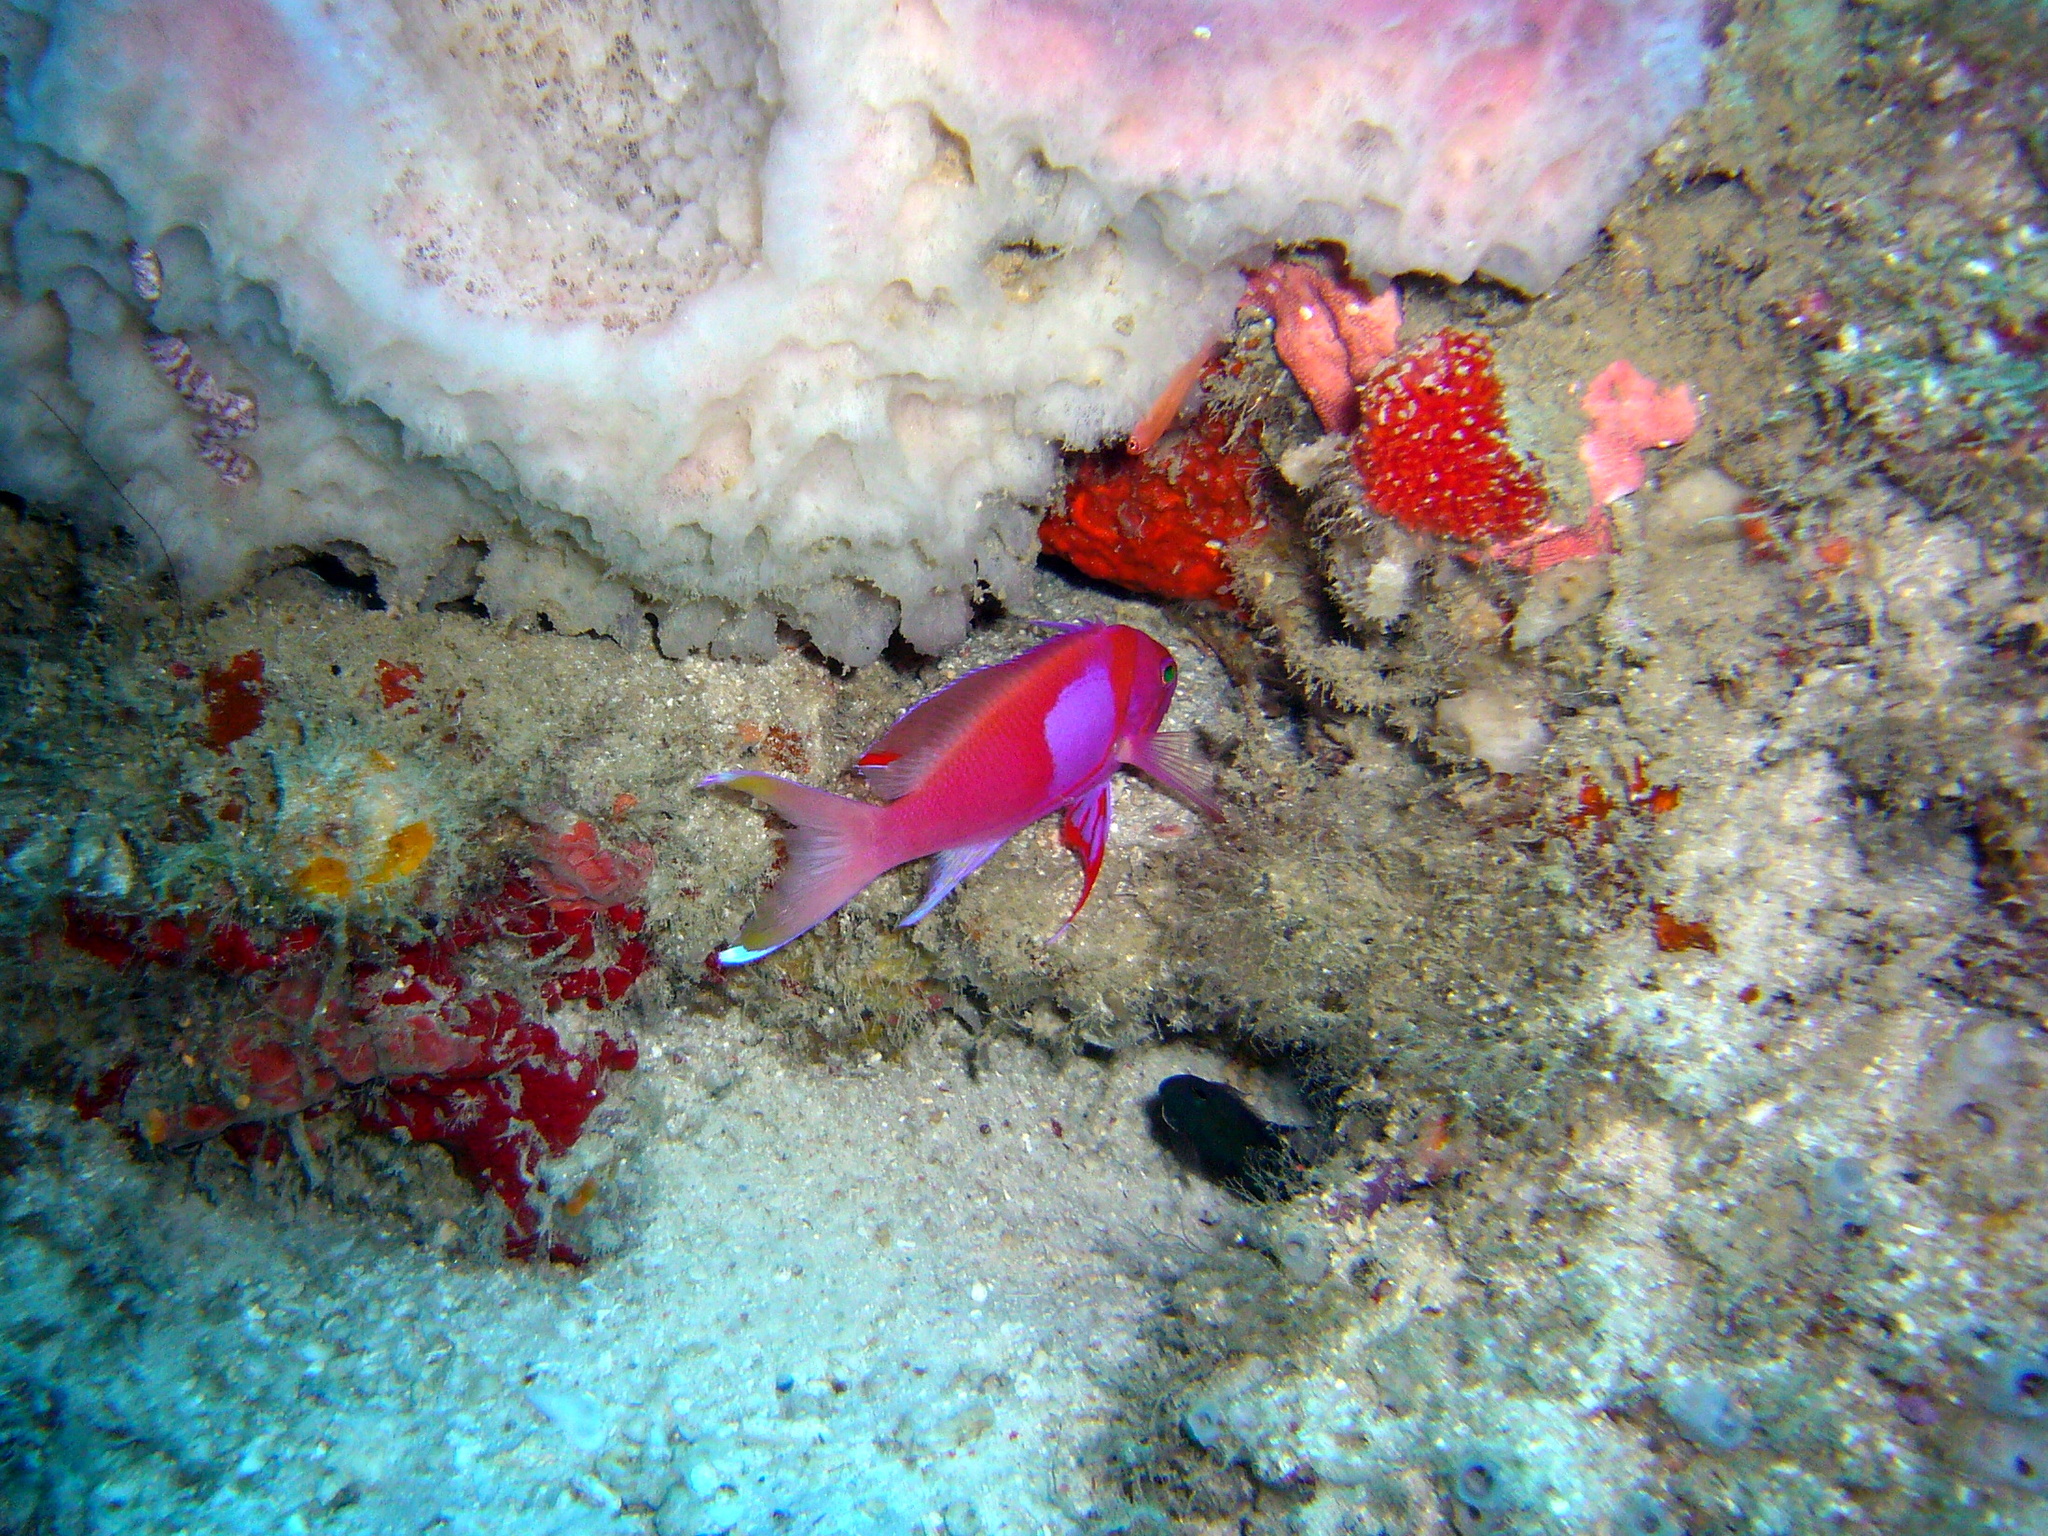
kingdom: Animalia
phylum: Chordata
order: Perciformes
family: Serranidae
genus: Pseudanthias
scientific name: Pseudanthias pleurotaenia
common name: Mirror basslet
